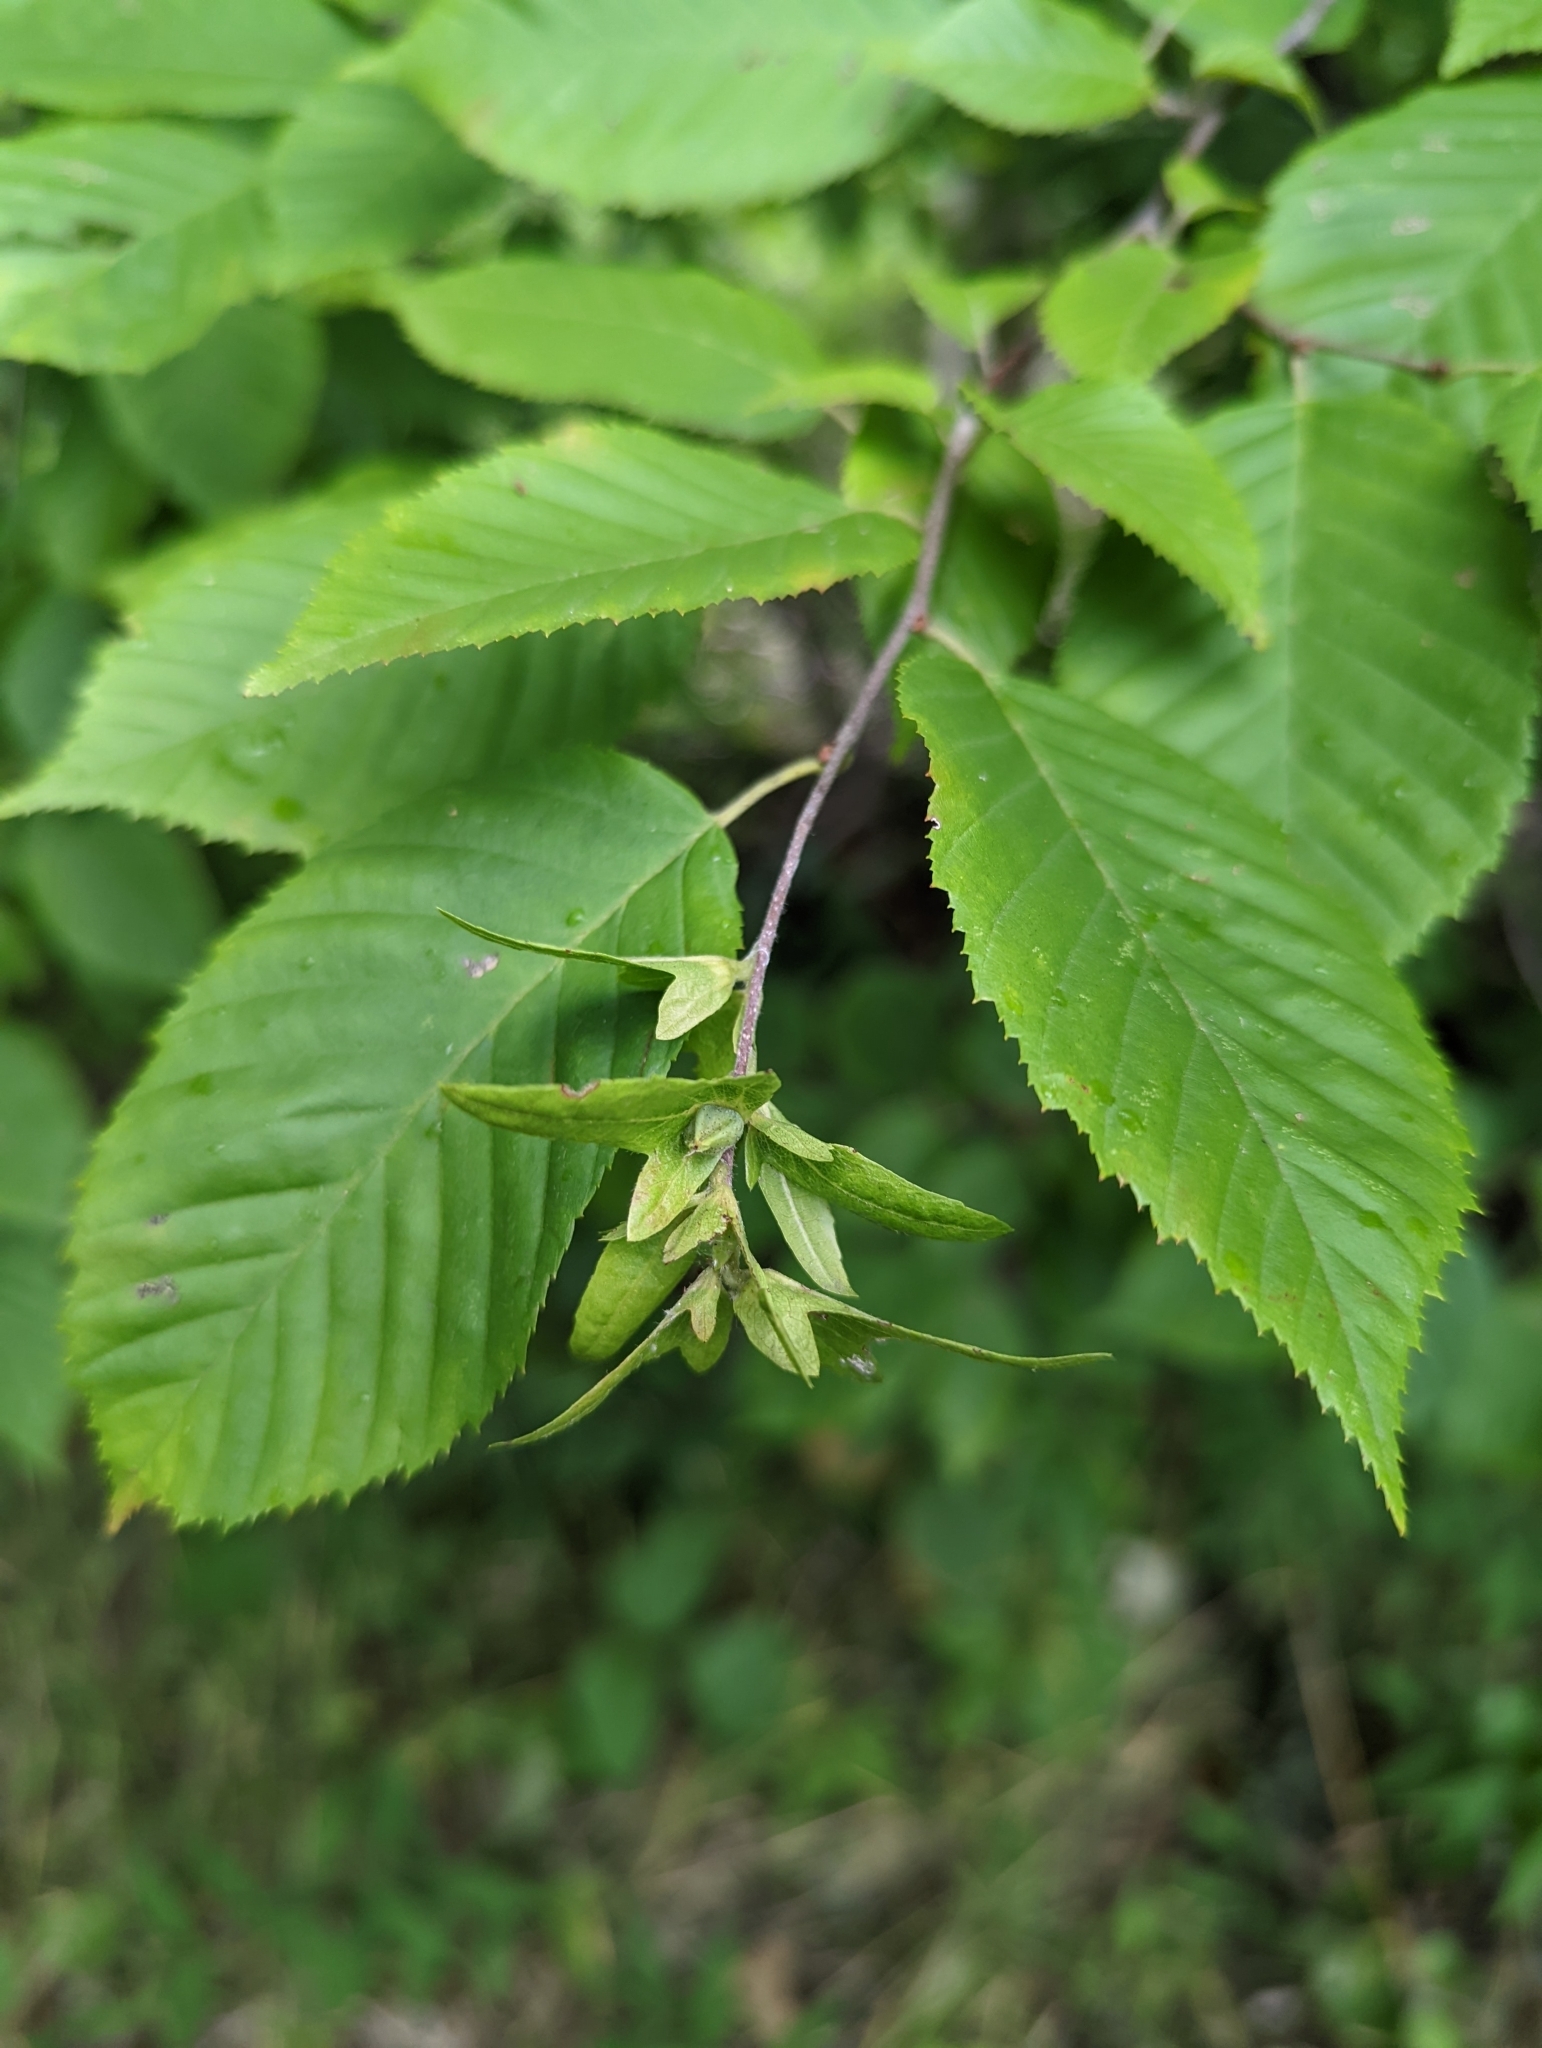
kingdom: Plantae
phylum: Tracheophyta
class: Magnoliopsida
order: Fagales
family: Betulaceae
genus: Carpinus
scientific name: Carpinus caroliniana
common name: American hornbeam
